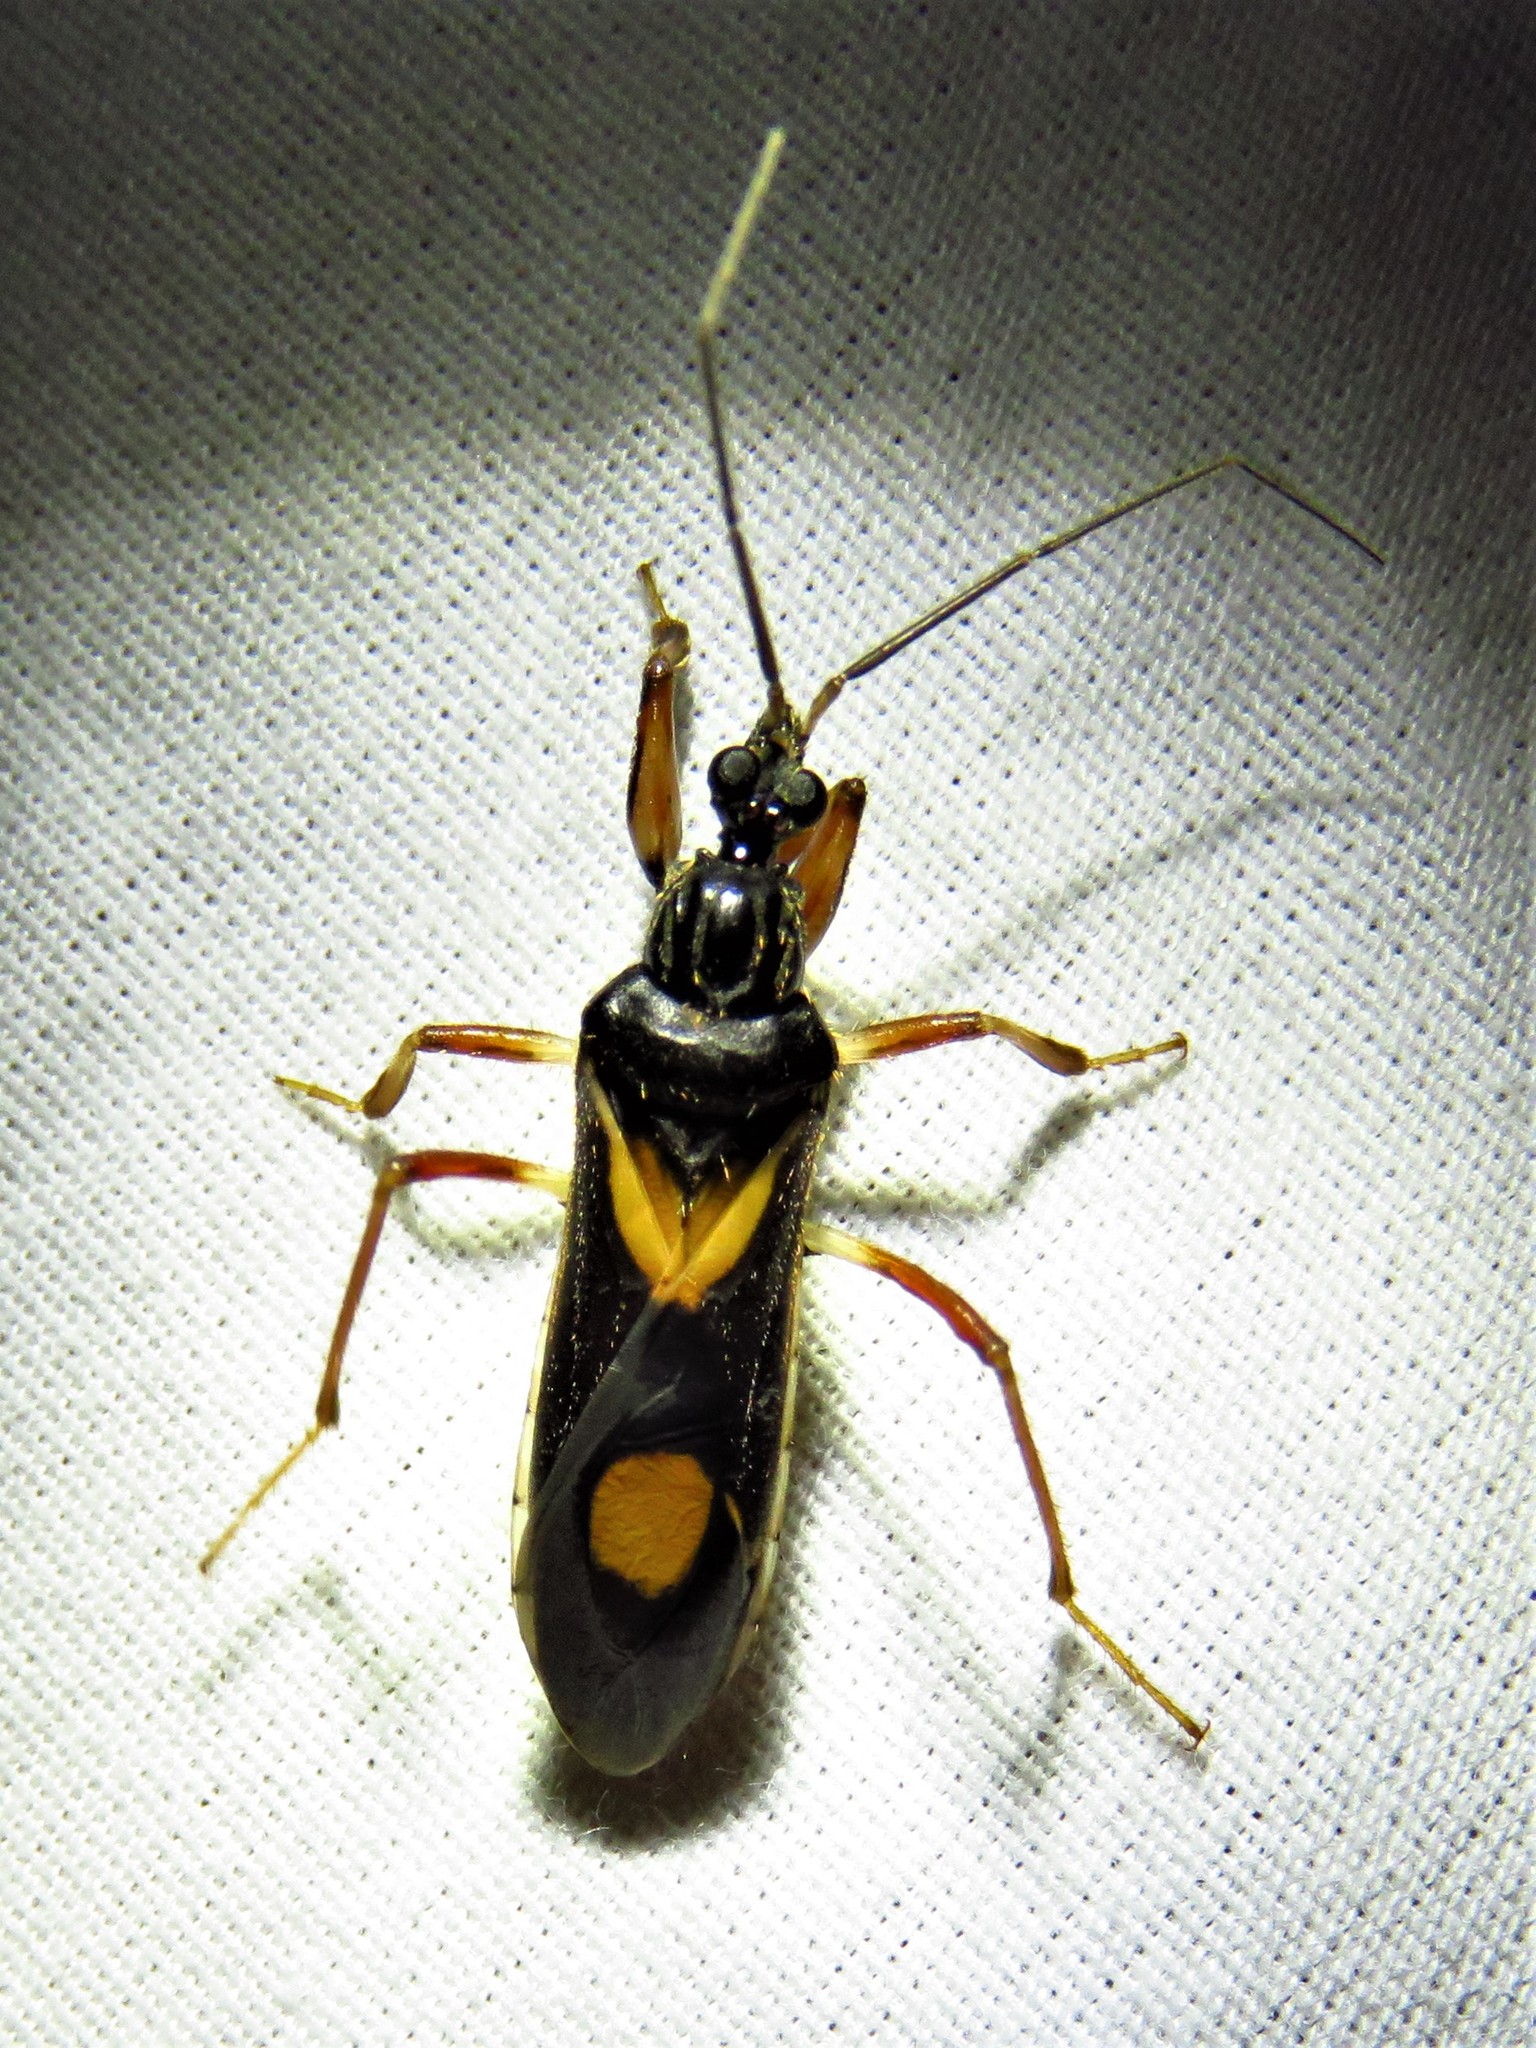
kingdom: Animalia
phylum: Arthropoda
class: Insecta
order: Hemiptera
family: Reduviidae
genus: Rasahus
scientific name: Rasahus hamatus
